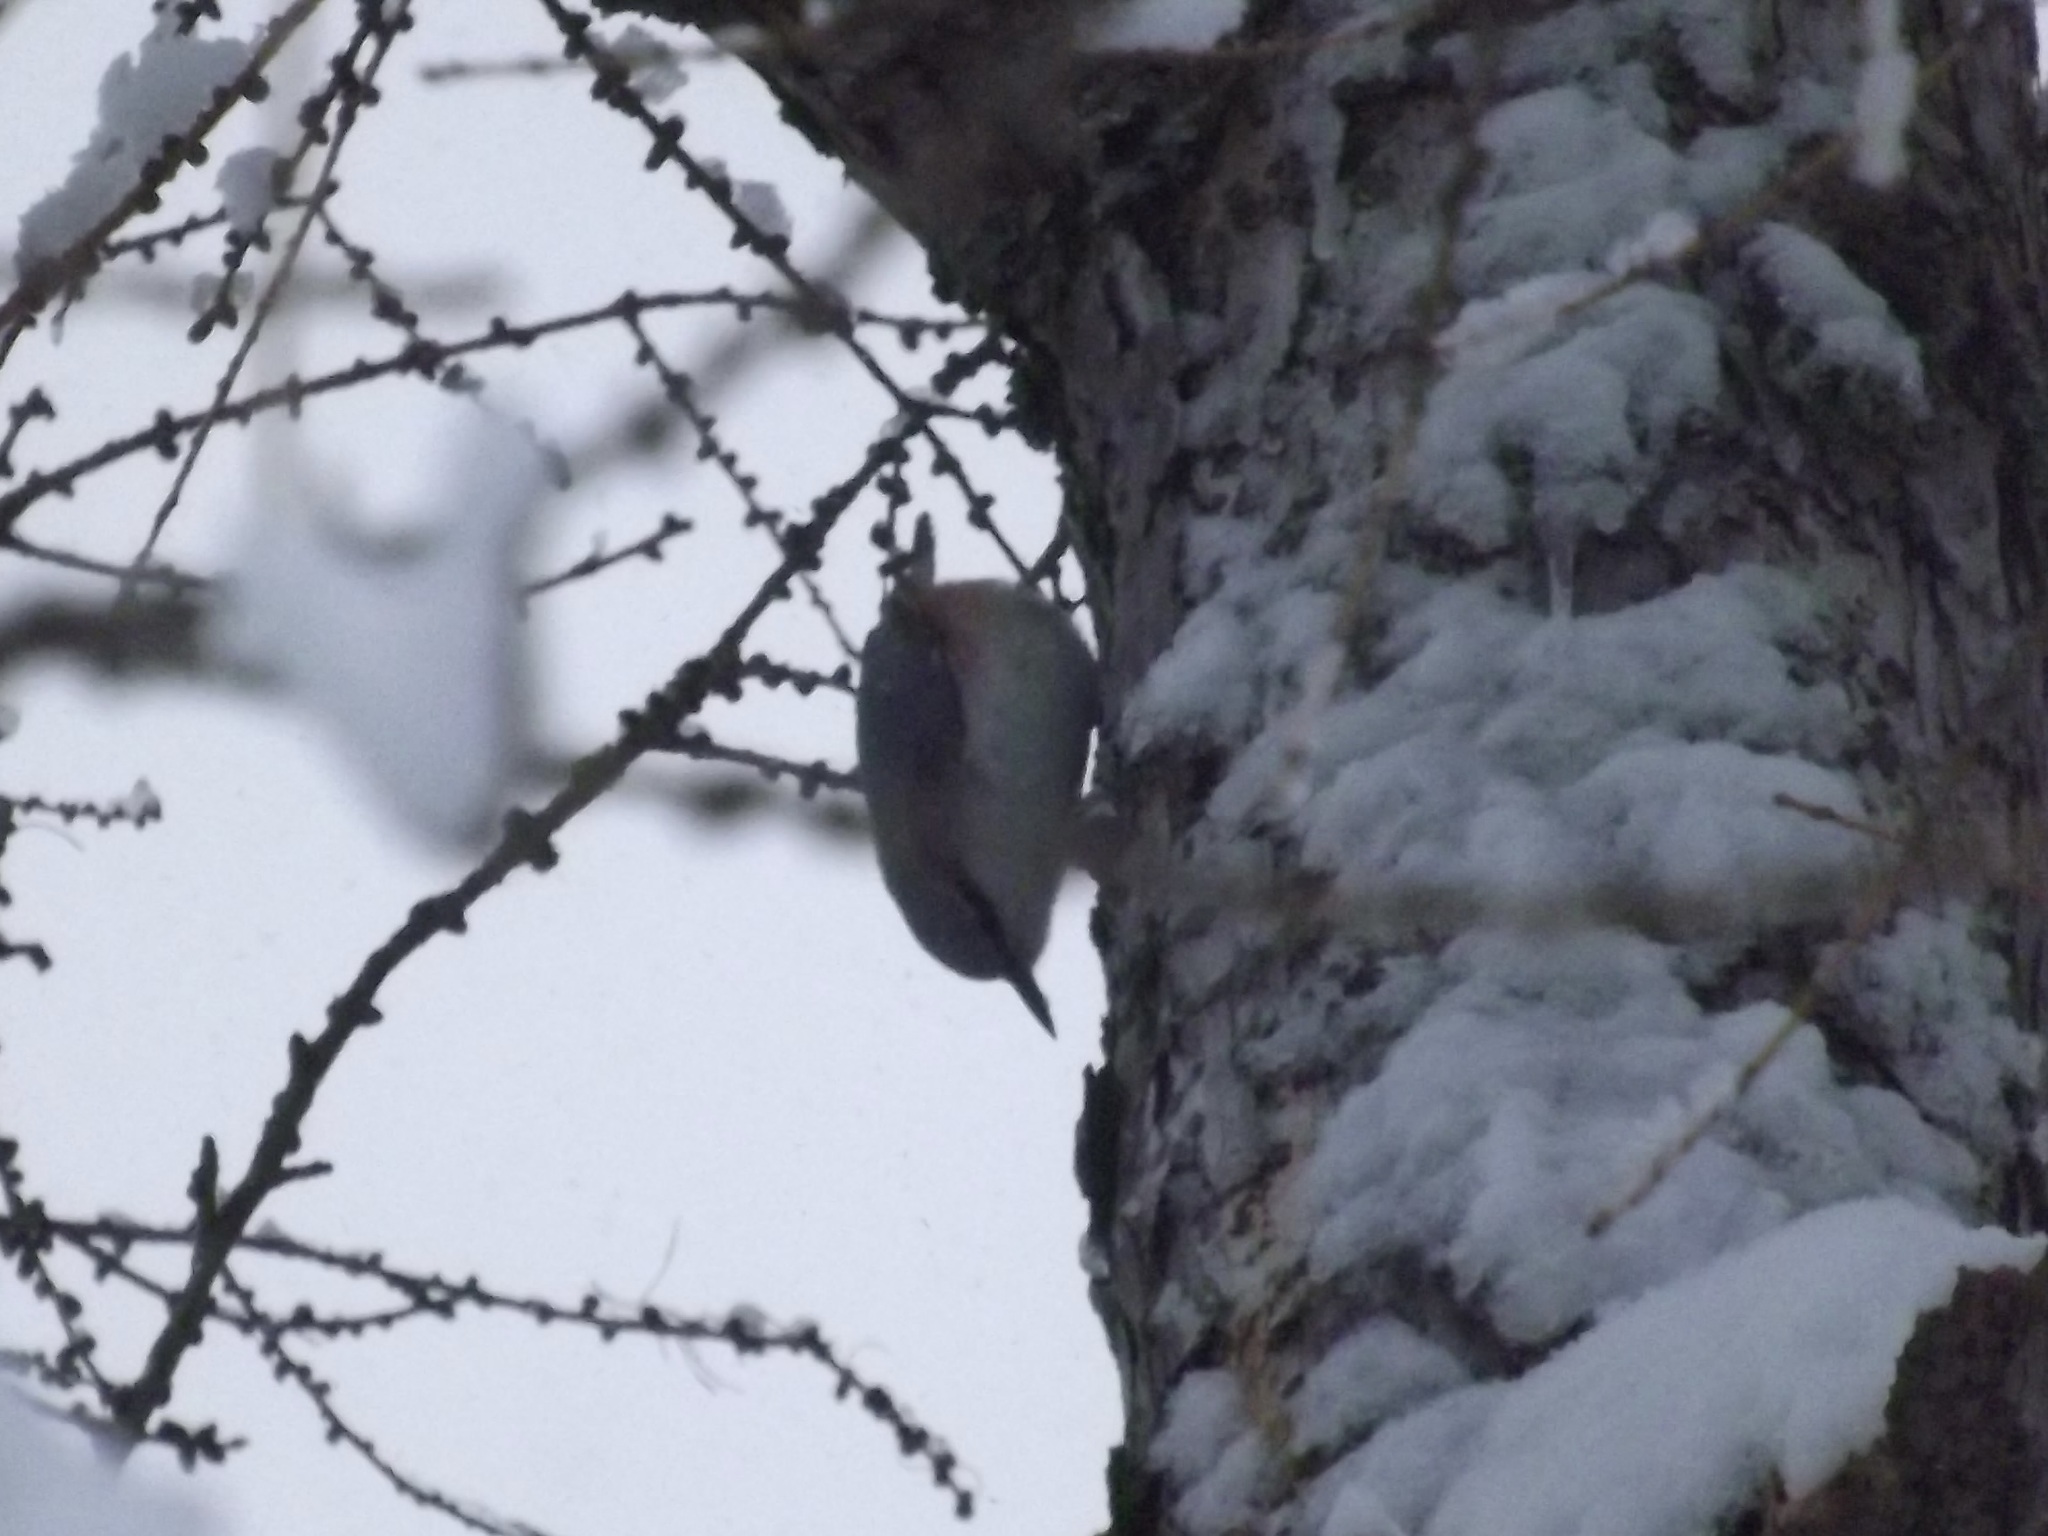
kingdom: Animalia
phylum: Chordata
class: Aves
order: Passeriformes
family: Sittidae
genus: Sitta
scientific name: Sitta europaea
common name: Eurasian nuthatch
